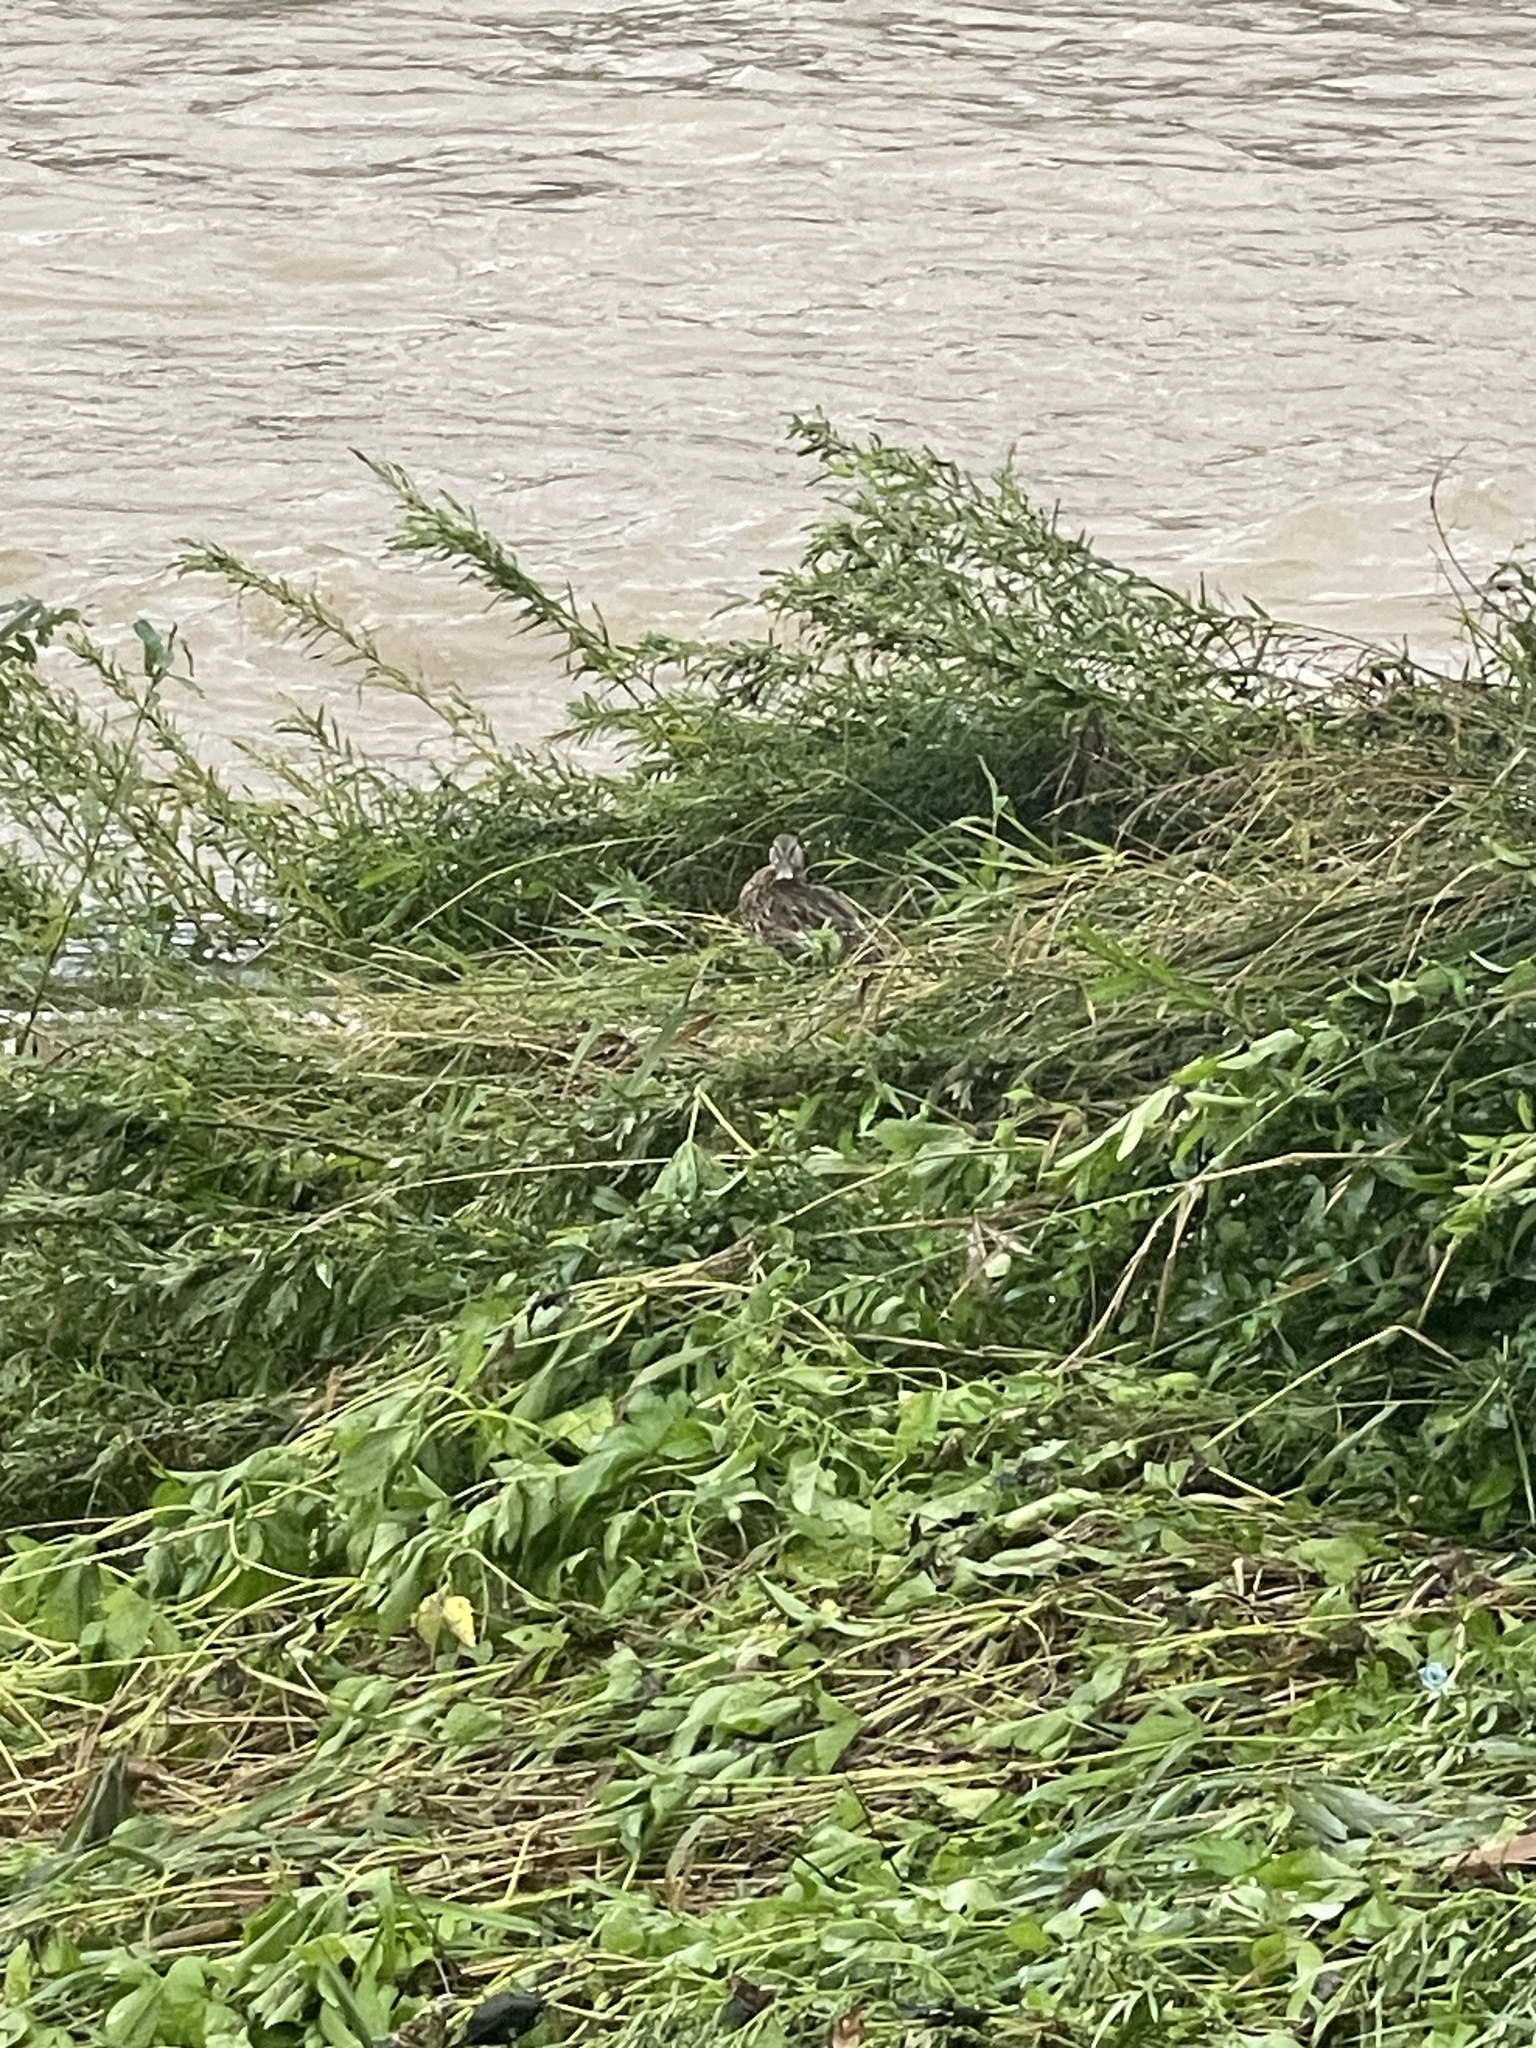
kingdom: Animalia
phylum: Chordata
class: Aves
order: Anseriformes
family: Anatidae
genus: Anas
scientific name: Anas platyrhynchos
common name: Mallard
